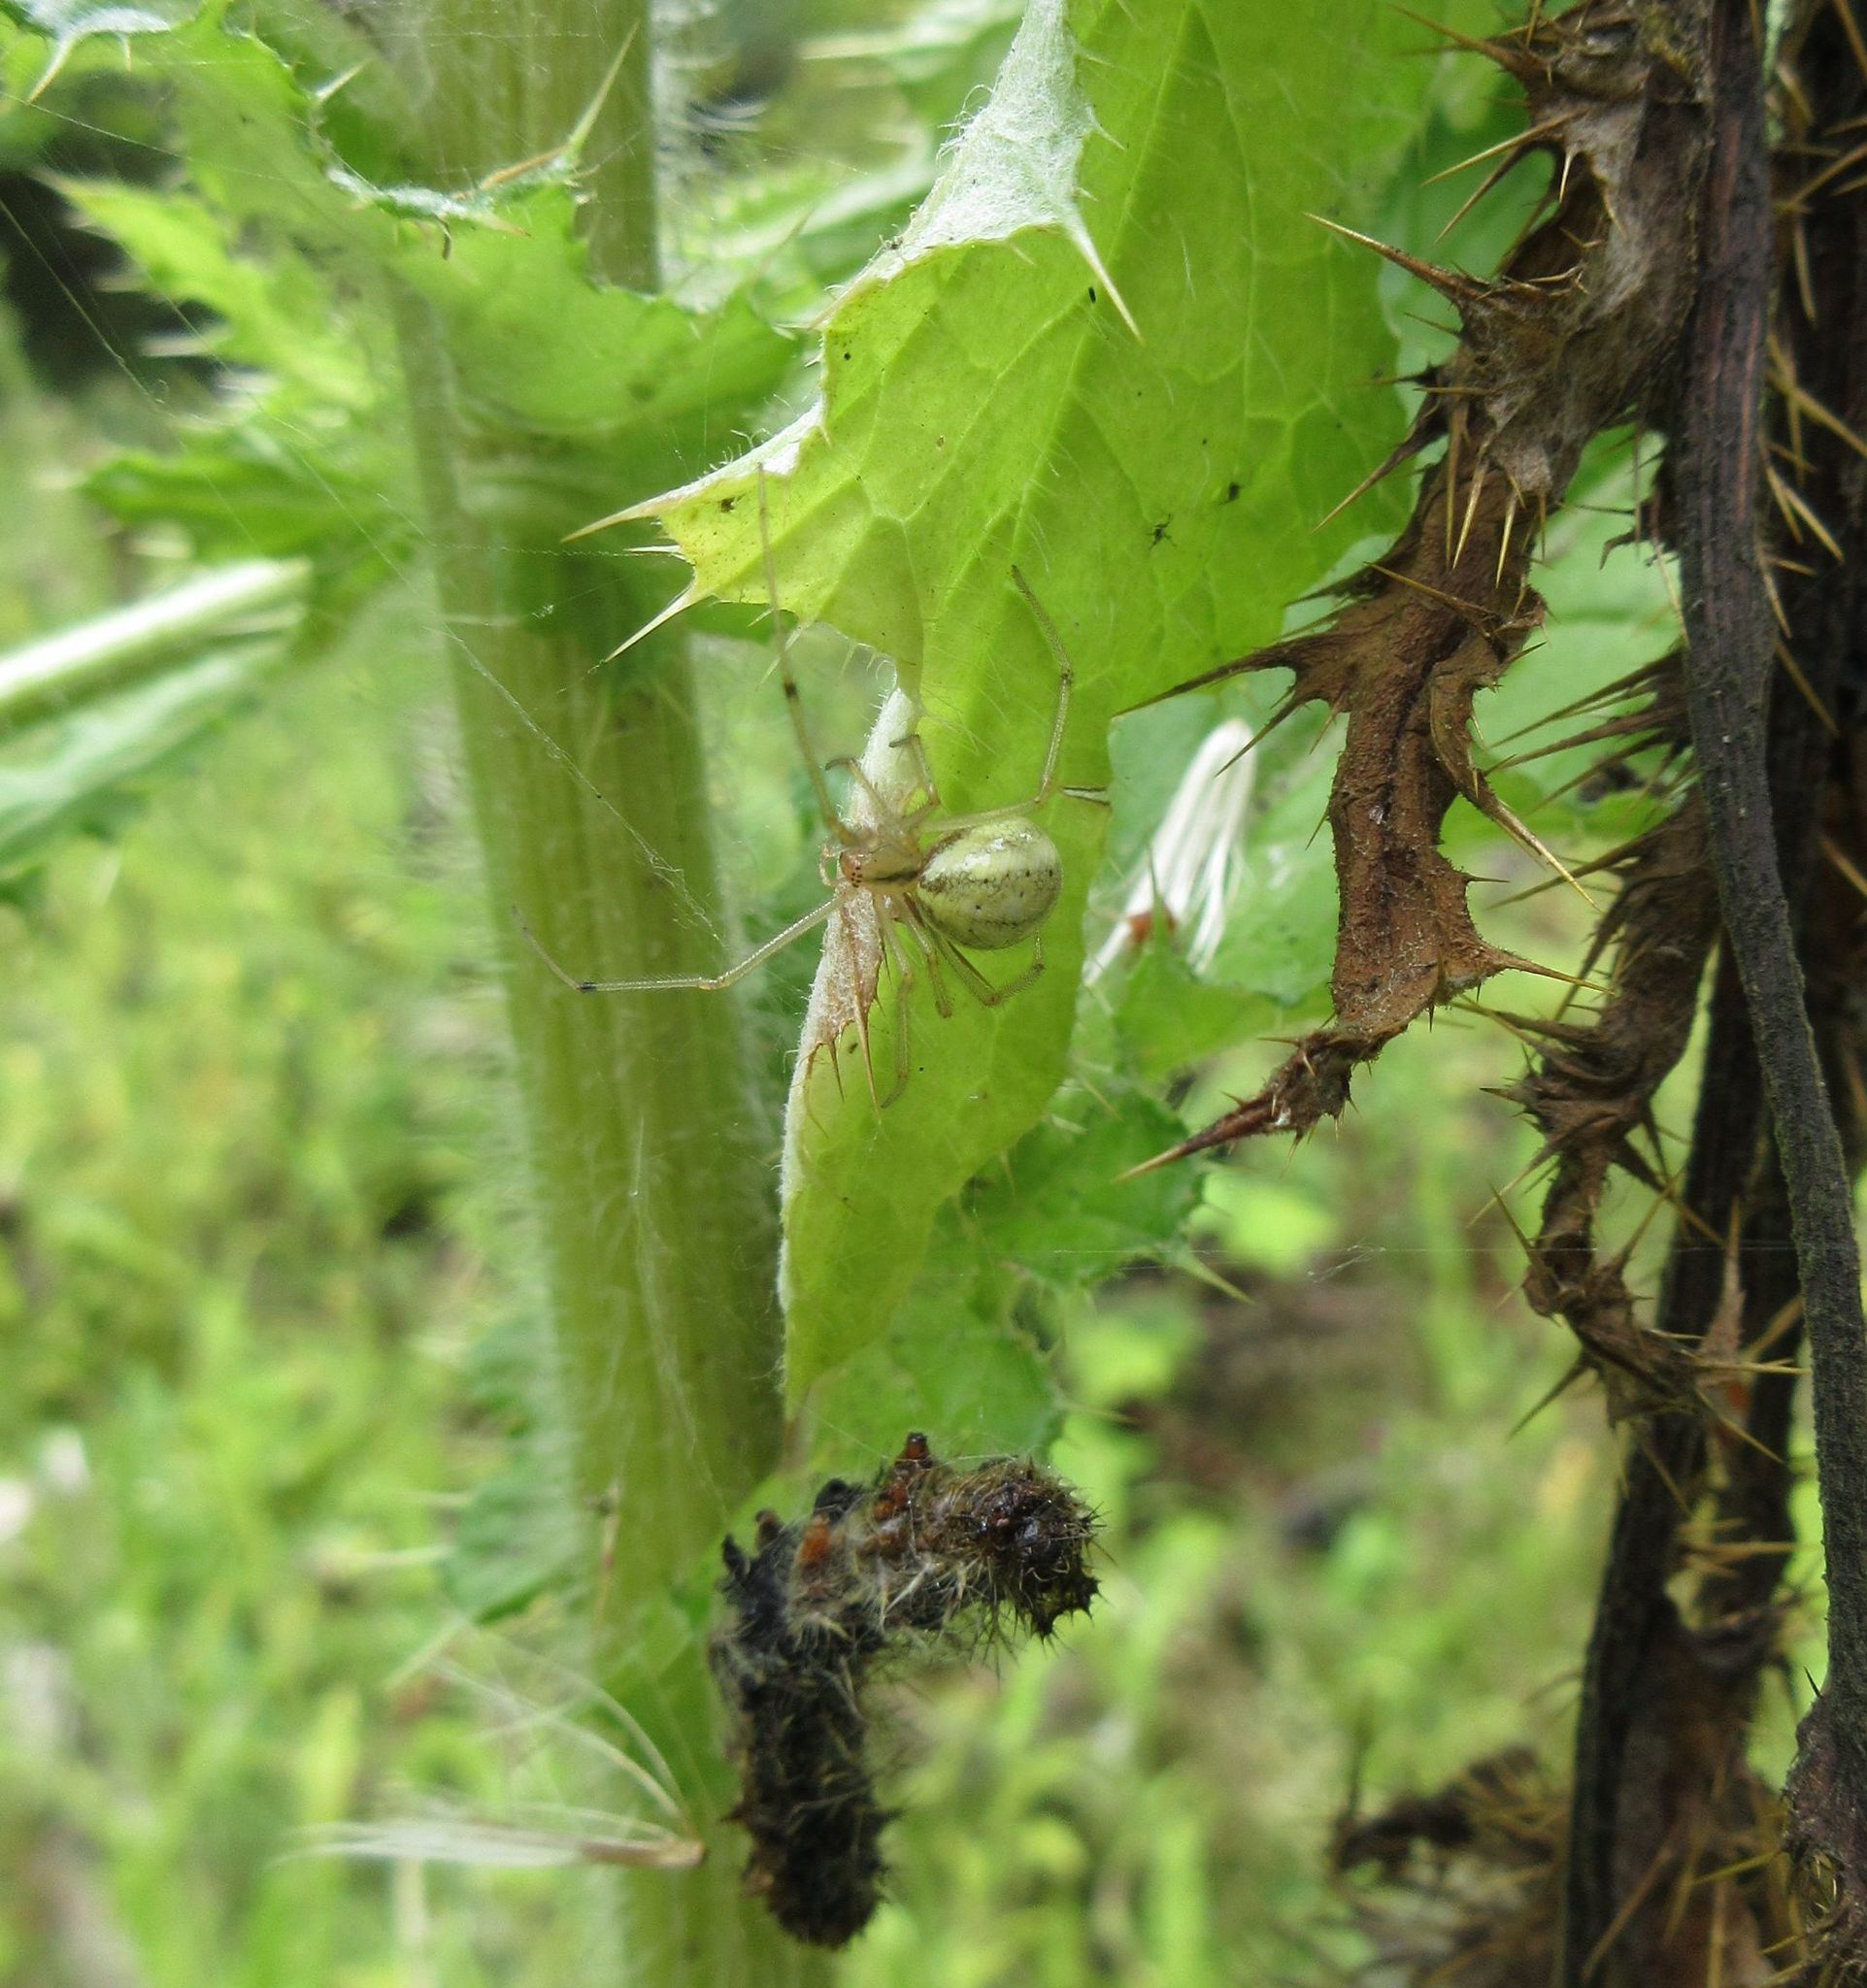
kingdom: Animalia
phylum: Arthropoda
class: Arachnida
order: Araneae
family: Theridiidae
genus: Enoplognatha
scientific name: Enoplognatha ovata
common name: Common candy-striped spider
